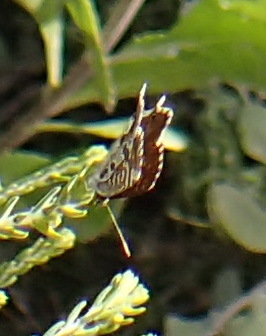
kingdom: Animalia
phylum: Arthropoda
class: Insecta
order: Lepidoptera
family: Lycaenidae
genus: Cacyreus
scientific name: Cacyreus marshalli
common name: Geranium bronze
